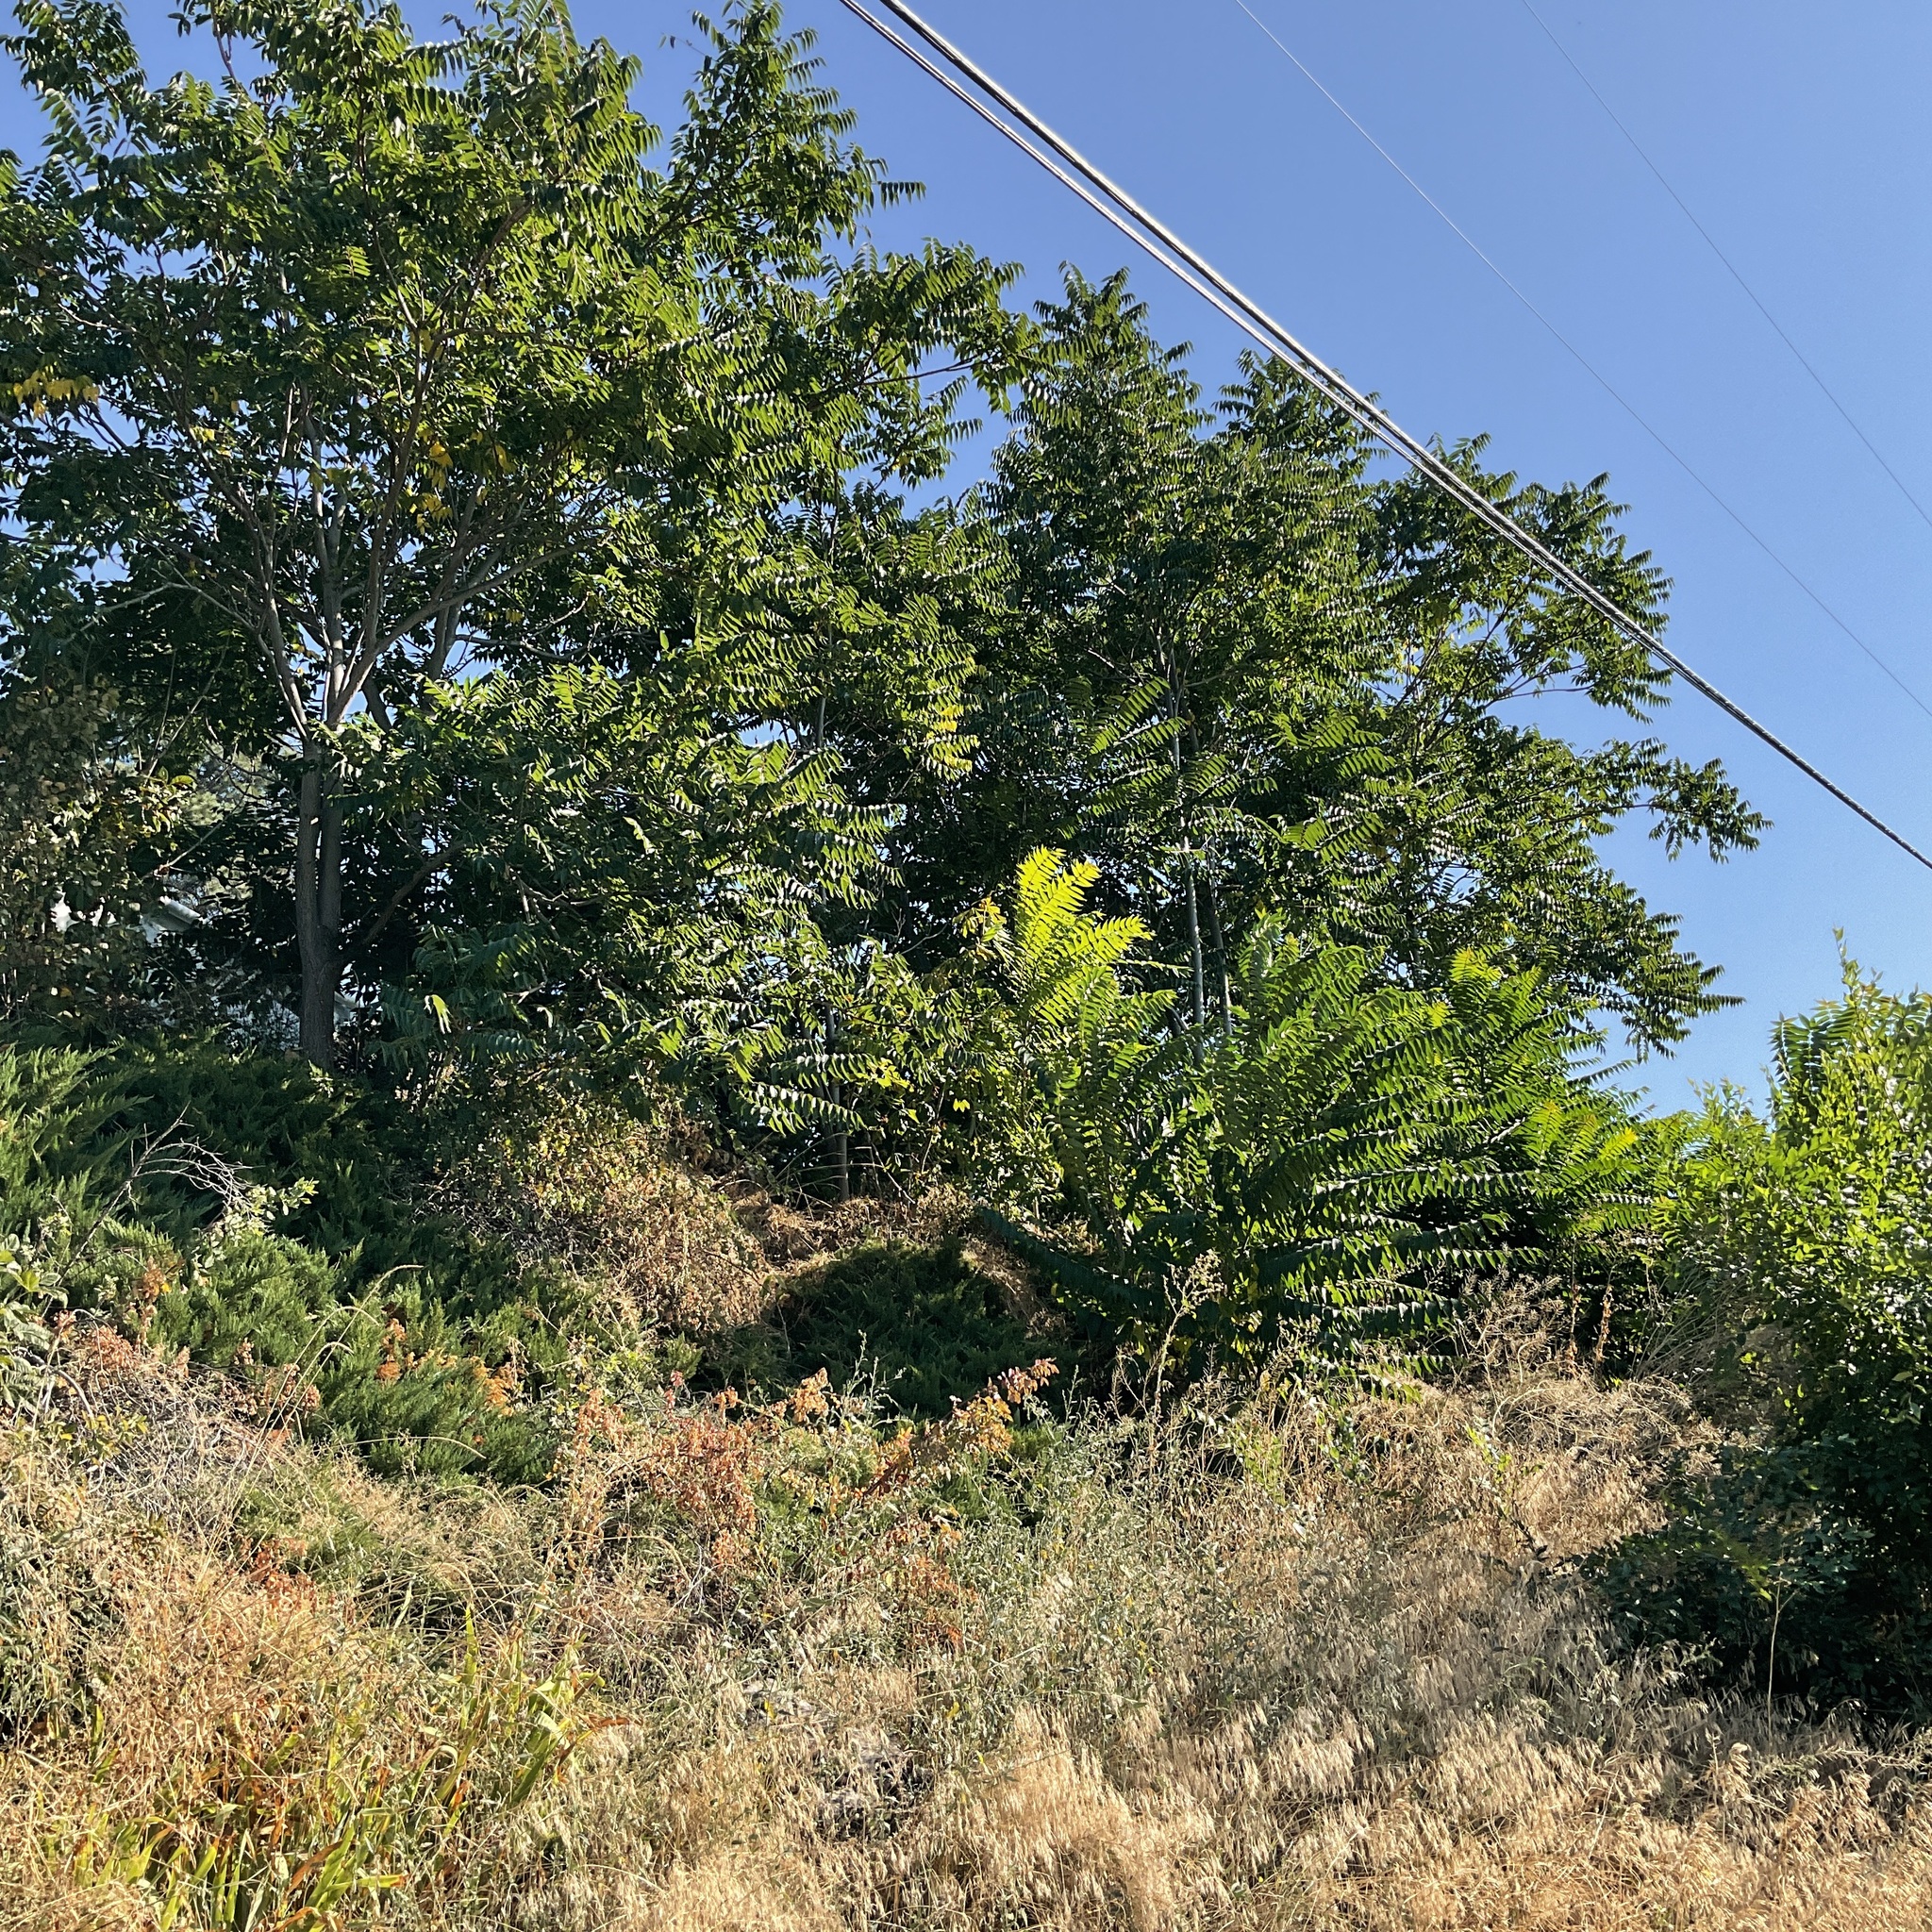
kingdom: Plantae
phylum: Tracheophyta
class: Magnoliopsida
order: Sapindales
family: Simaroubaceae
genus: Ailanthus
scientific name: Ailanthus altissima
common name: Tree-of-heaven
